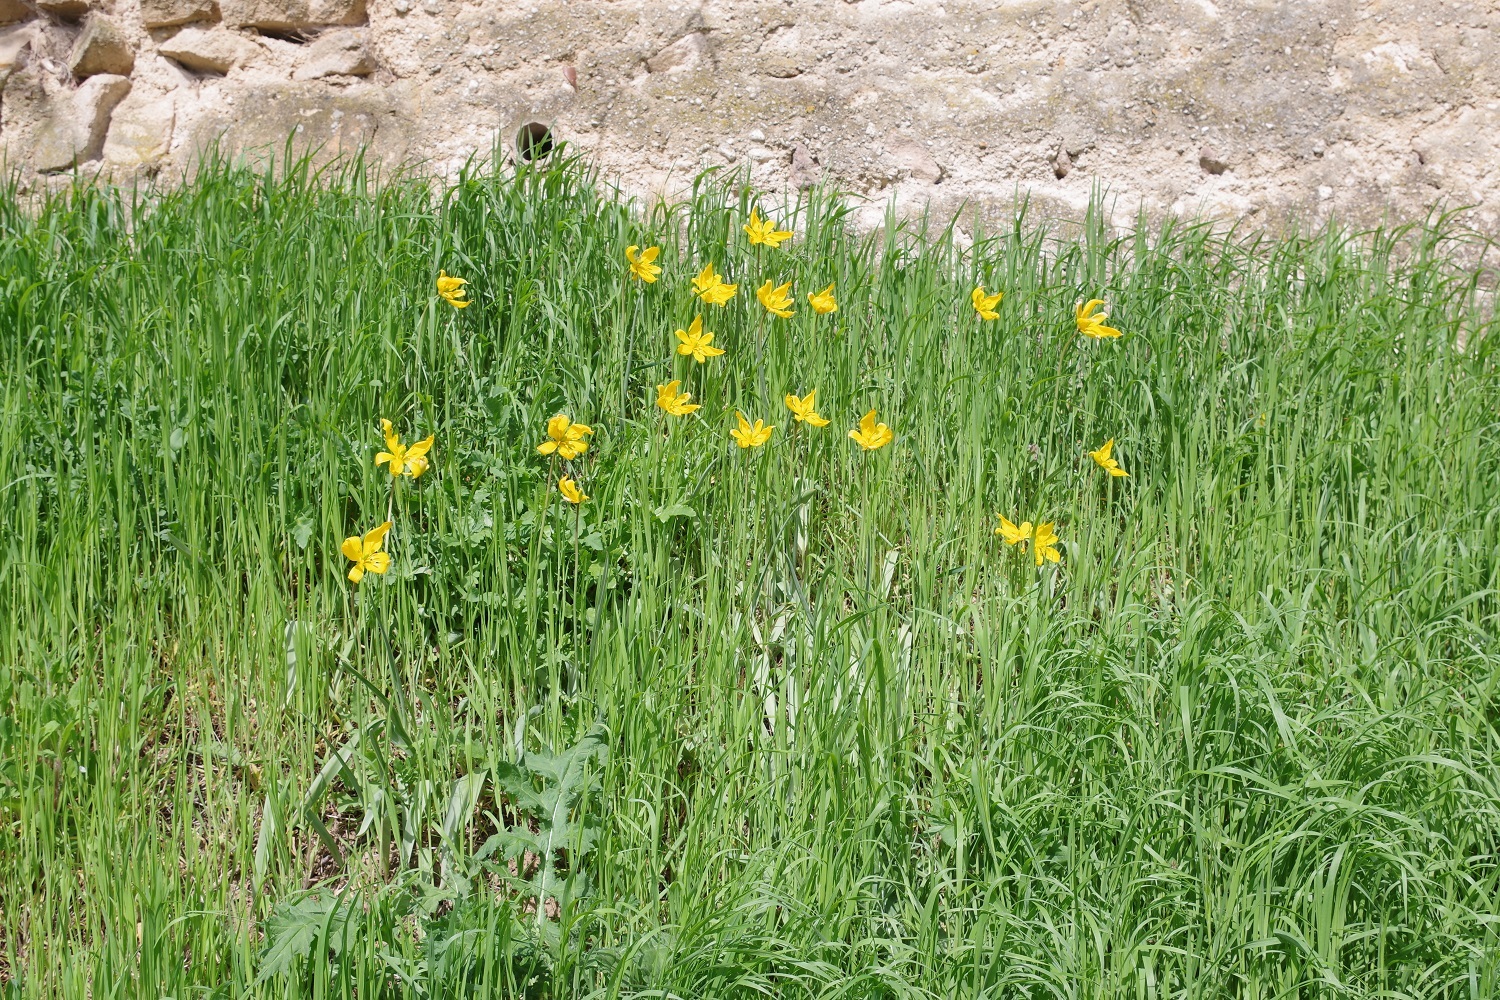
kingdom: Plantae
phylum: Tracheophyta
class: Liliopsida
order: Liliales
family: Liliaceae
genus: Tulipa
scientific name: Tulipa sylvestris
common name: Wild tulip
